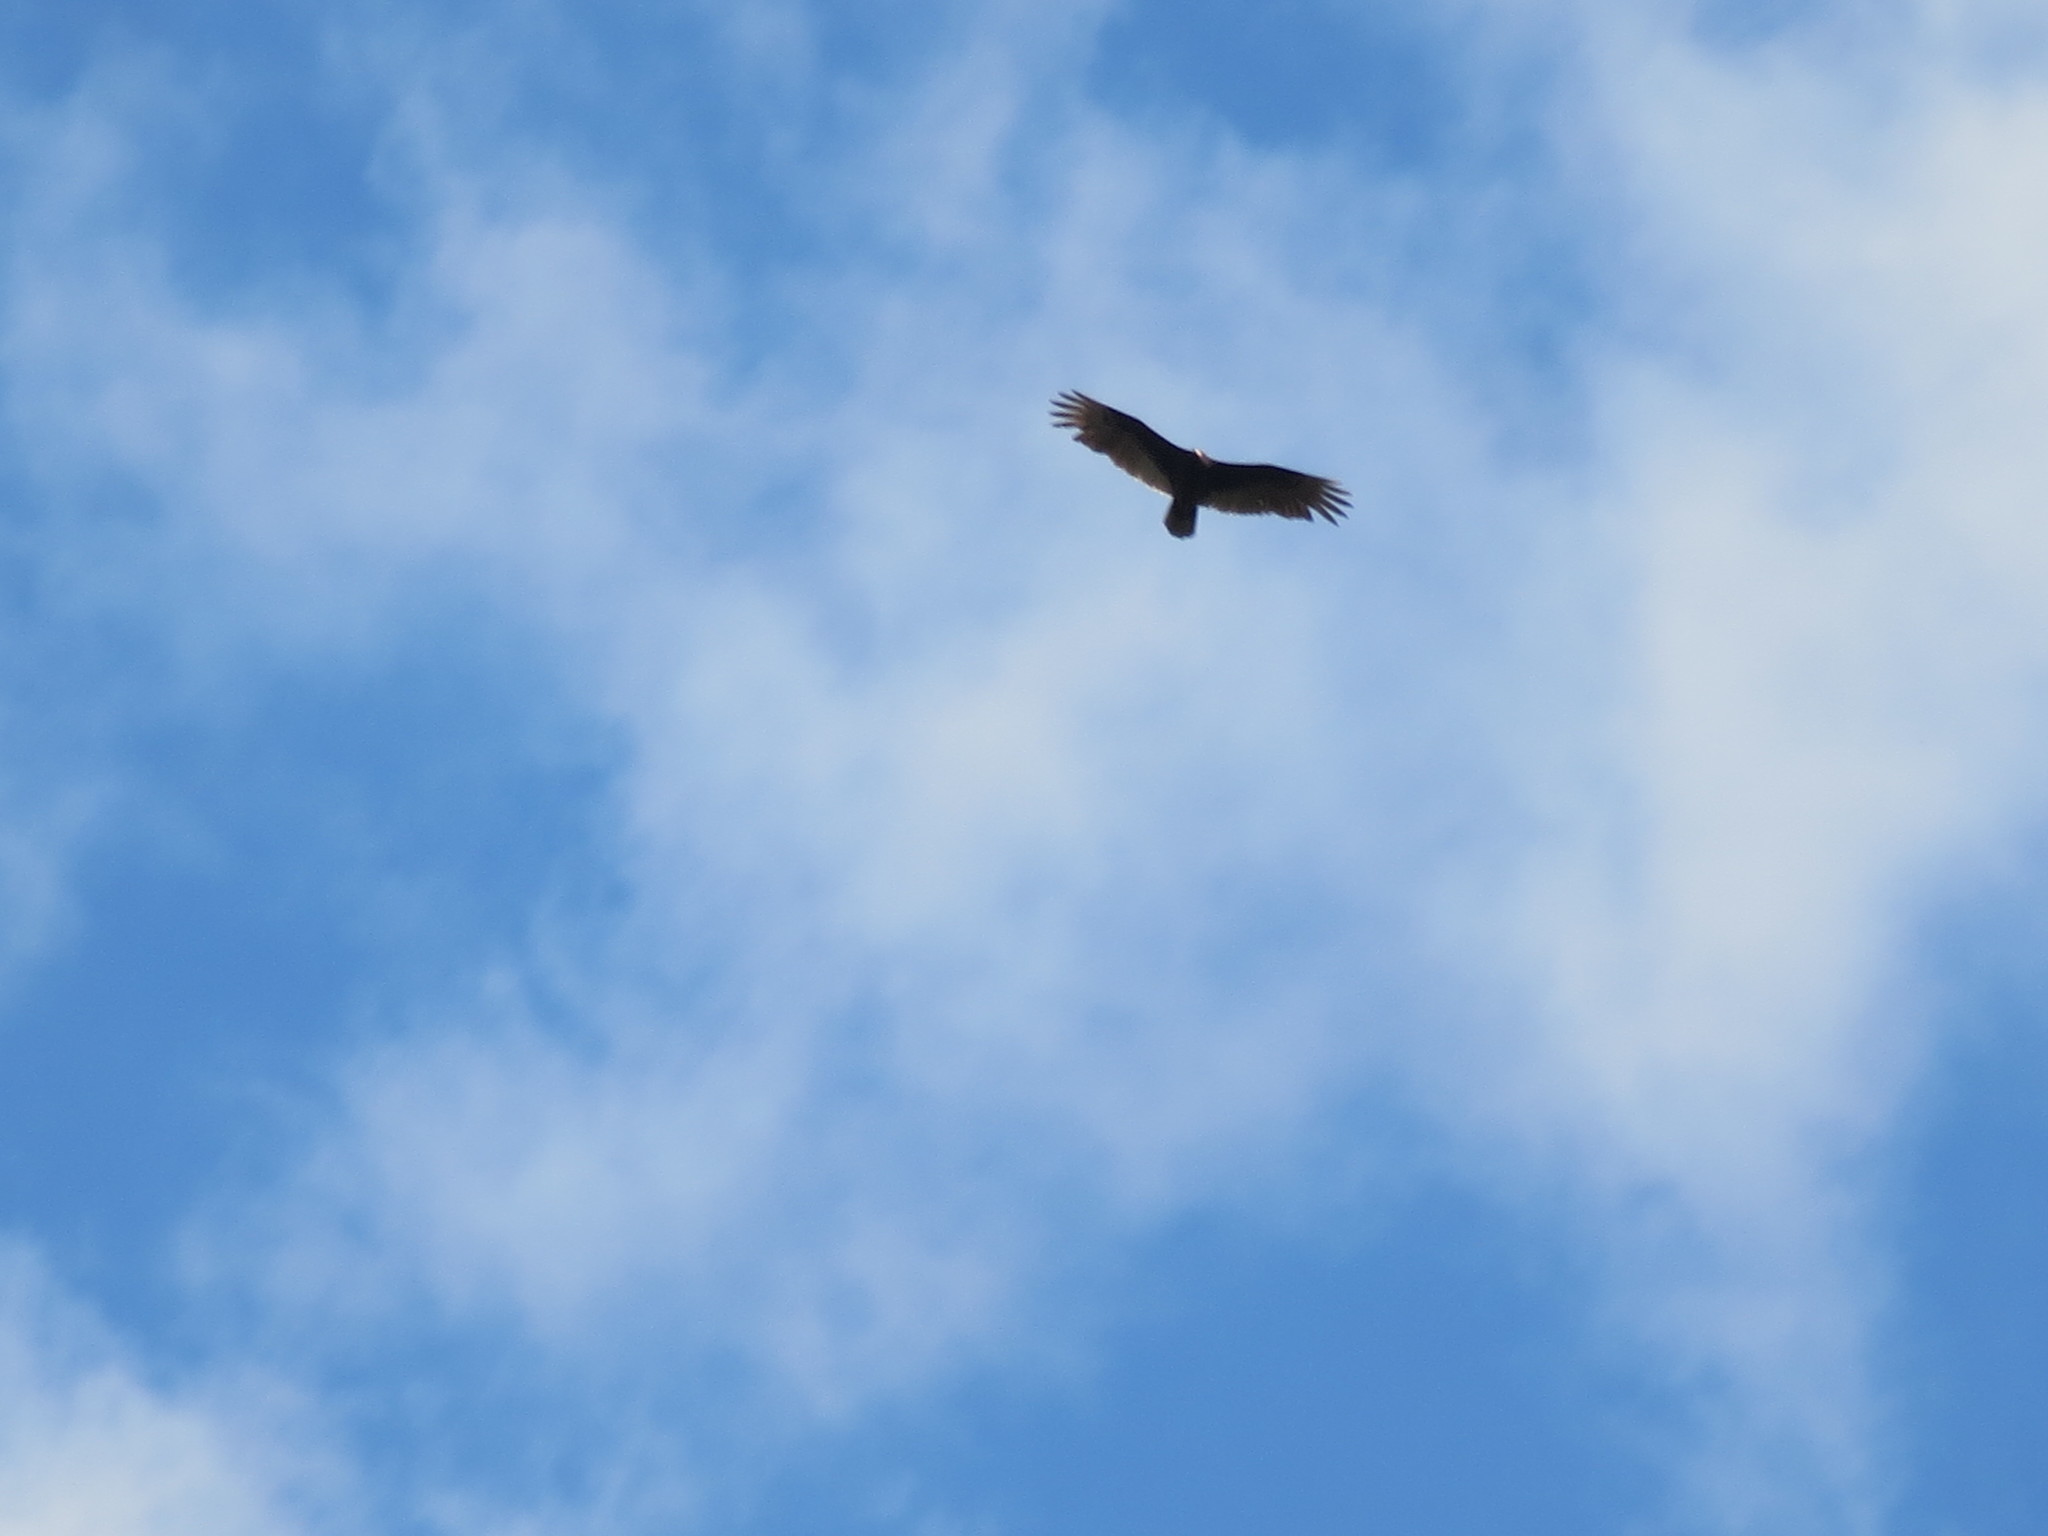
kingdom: Animalia
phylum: Chordata
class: Aves
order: Accipitriformes
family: Cathartidae
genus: Cathartes
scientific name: Cathartes aura
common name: Turkey vulture
